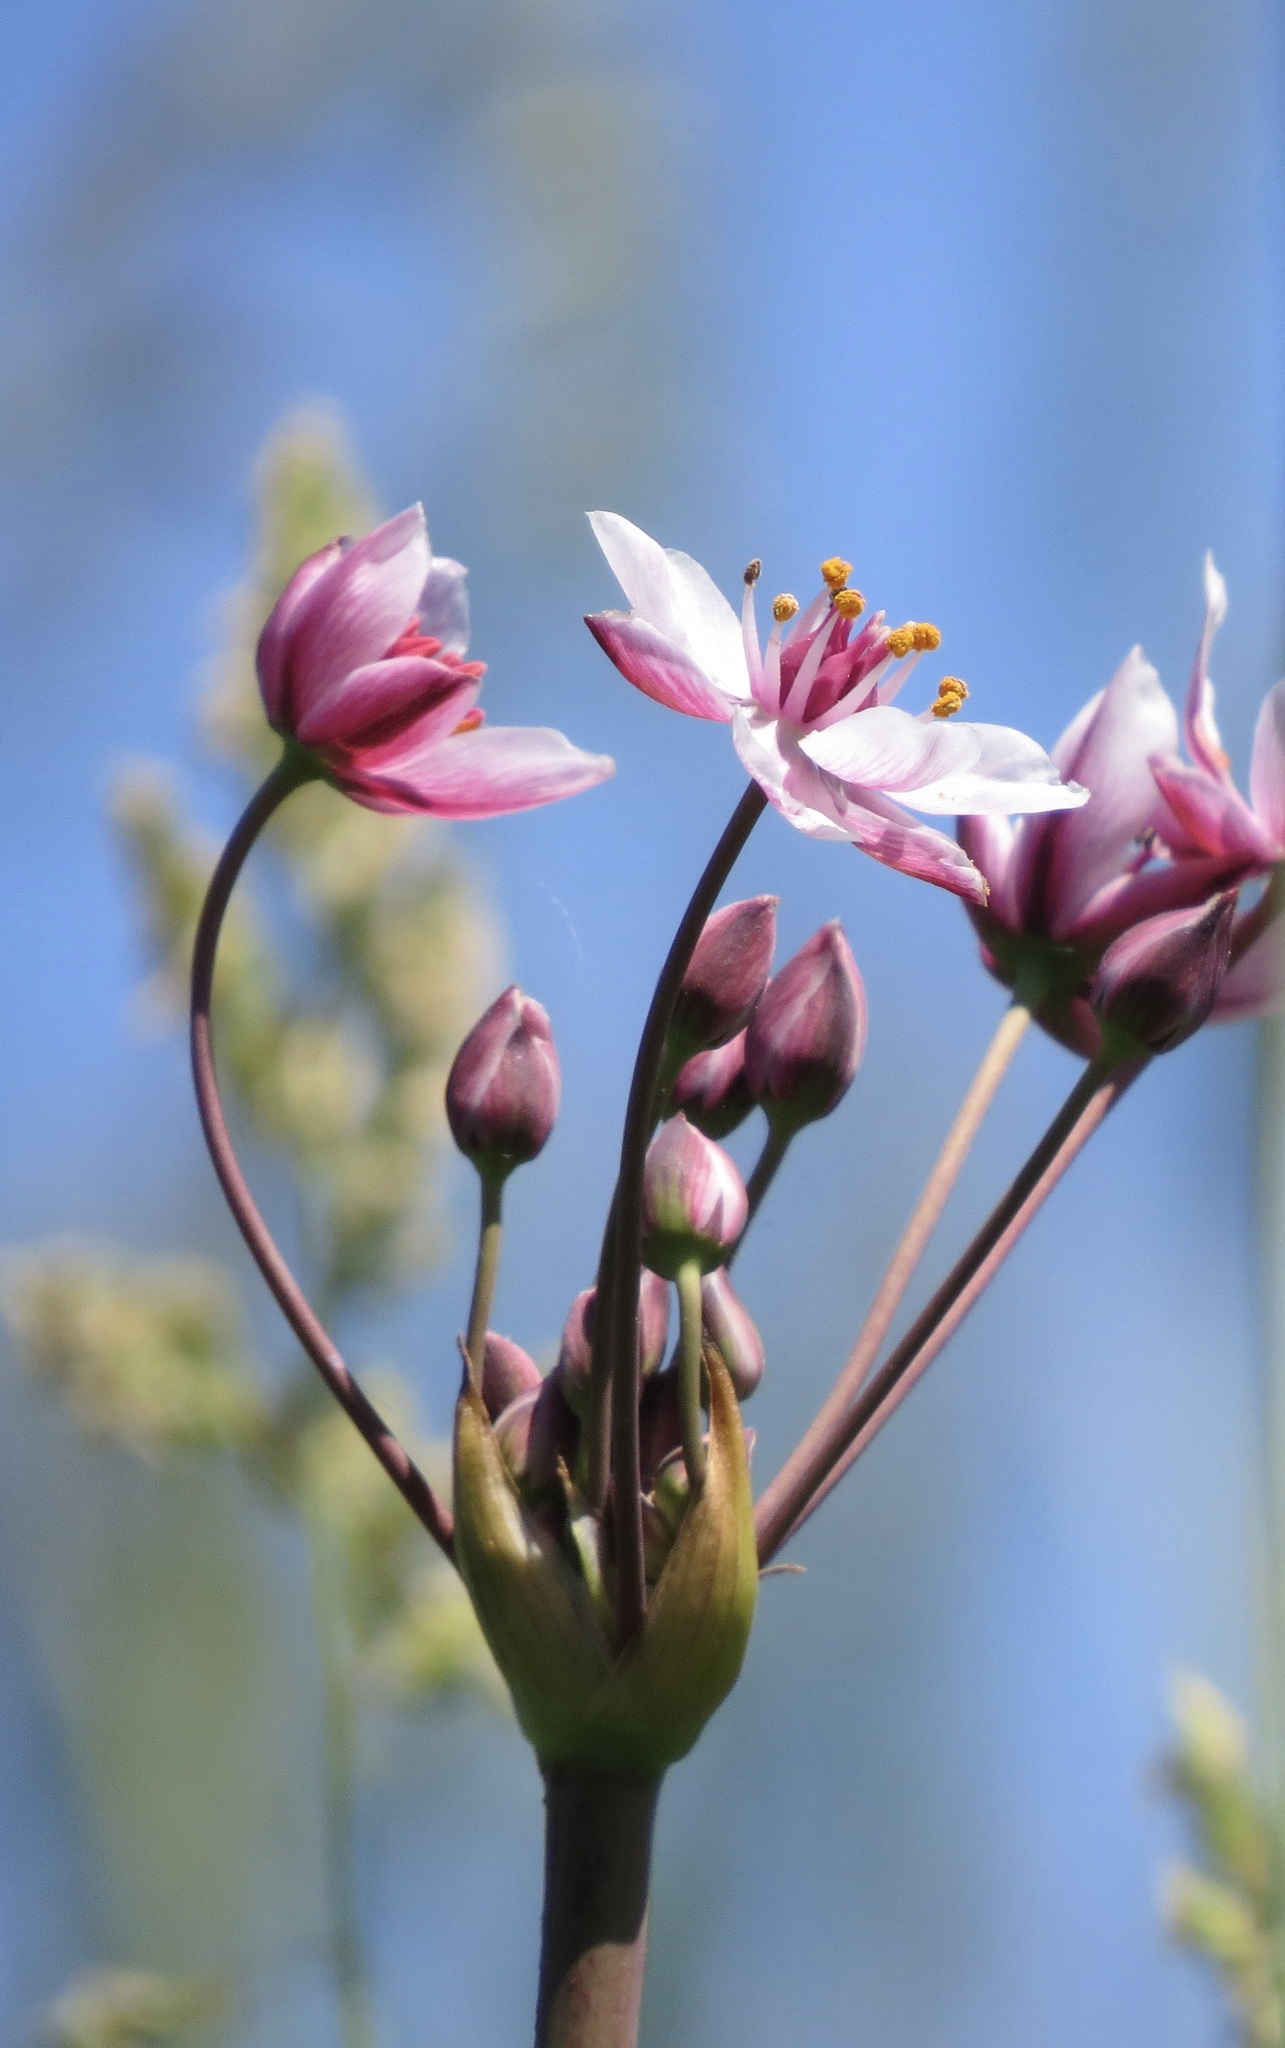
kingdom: Plantae
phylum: Tracheophyta
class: Liliopsida
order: Alismatales
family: Butomaceae
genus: Butomus
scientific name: Butomus umbellatus
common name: Flowering-rush
